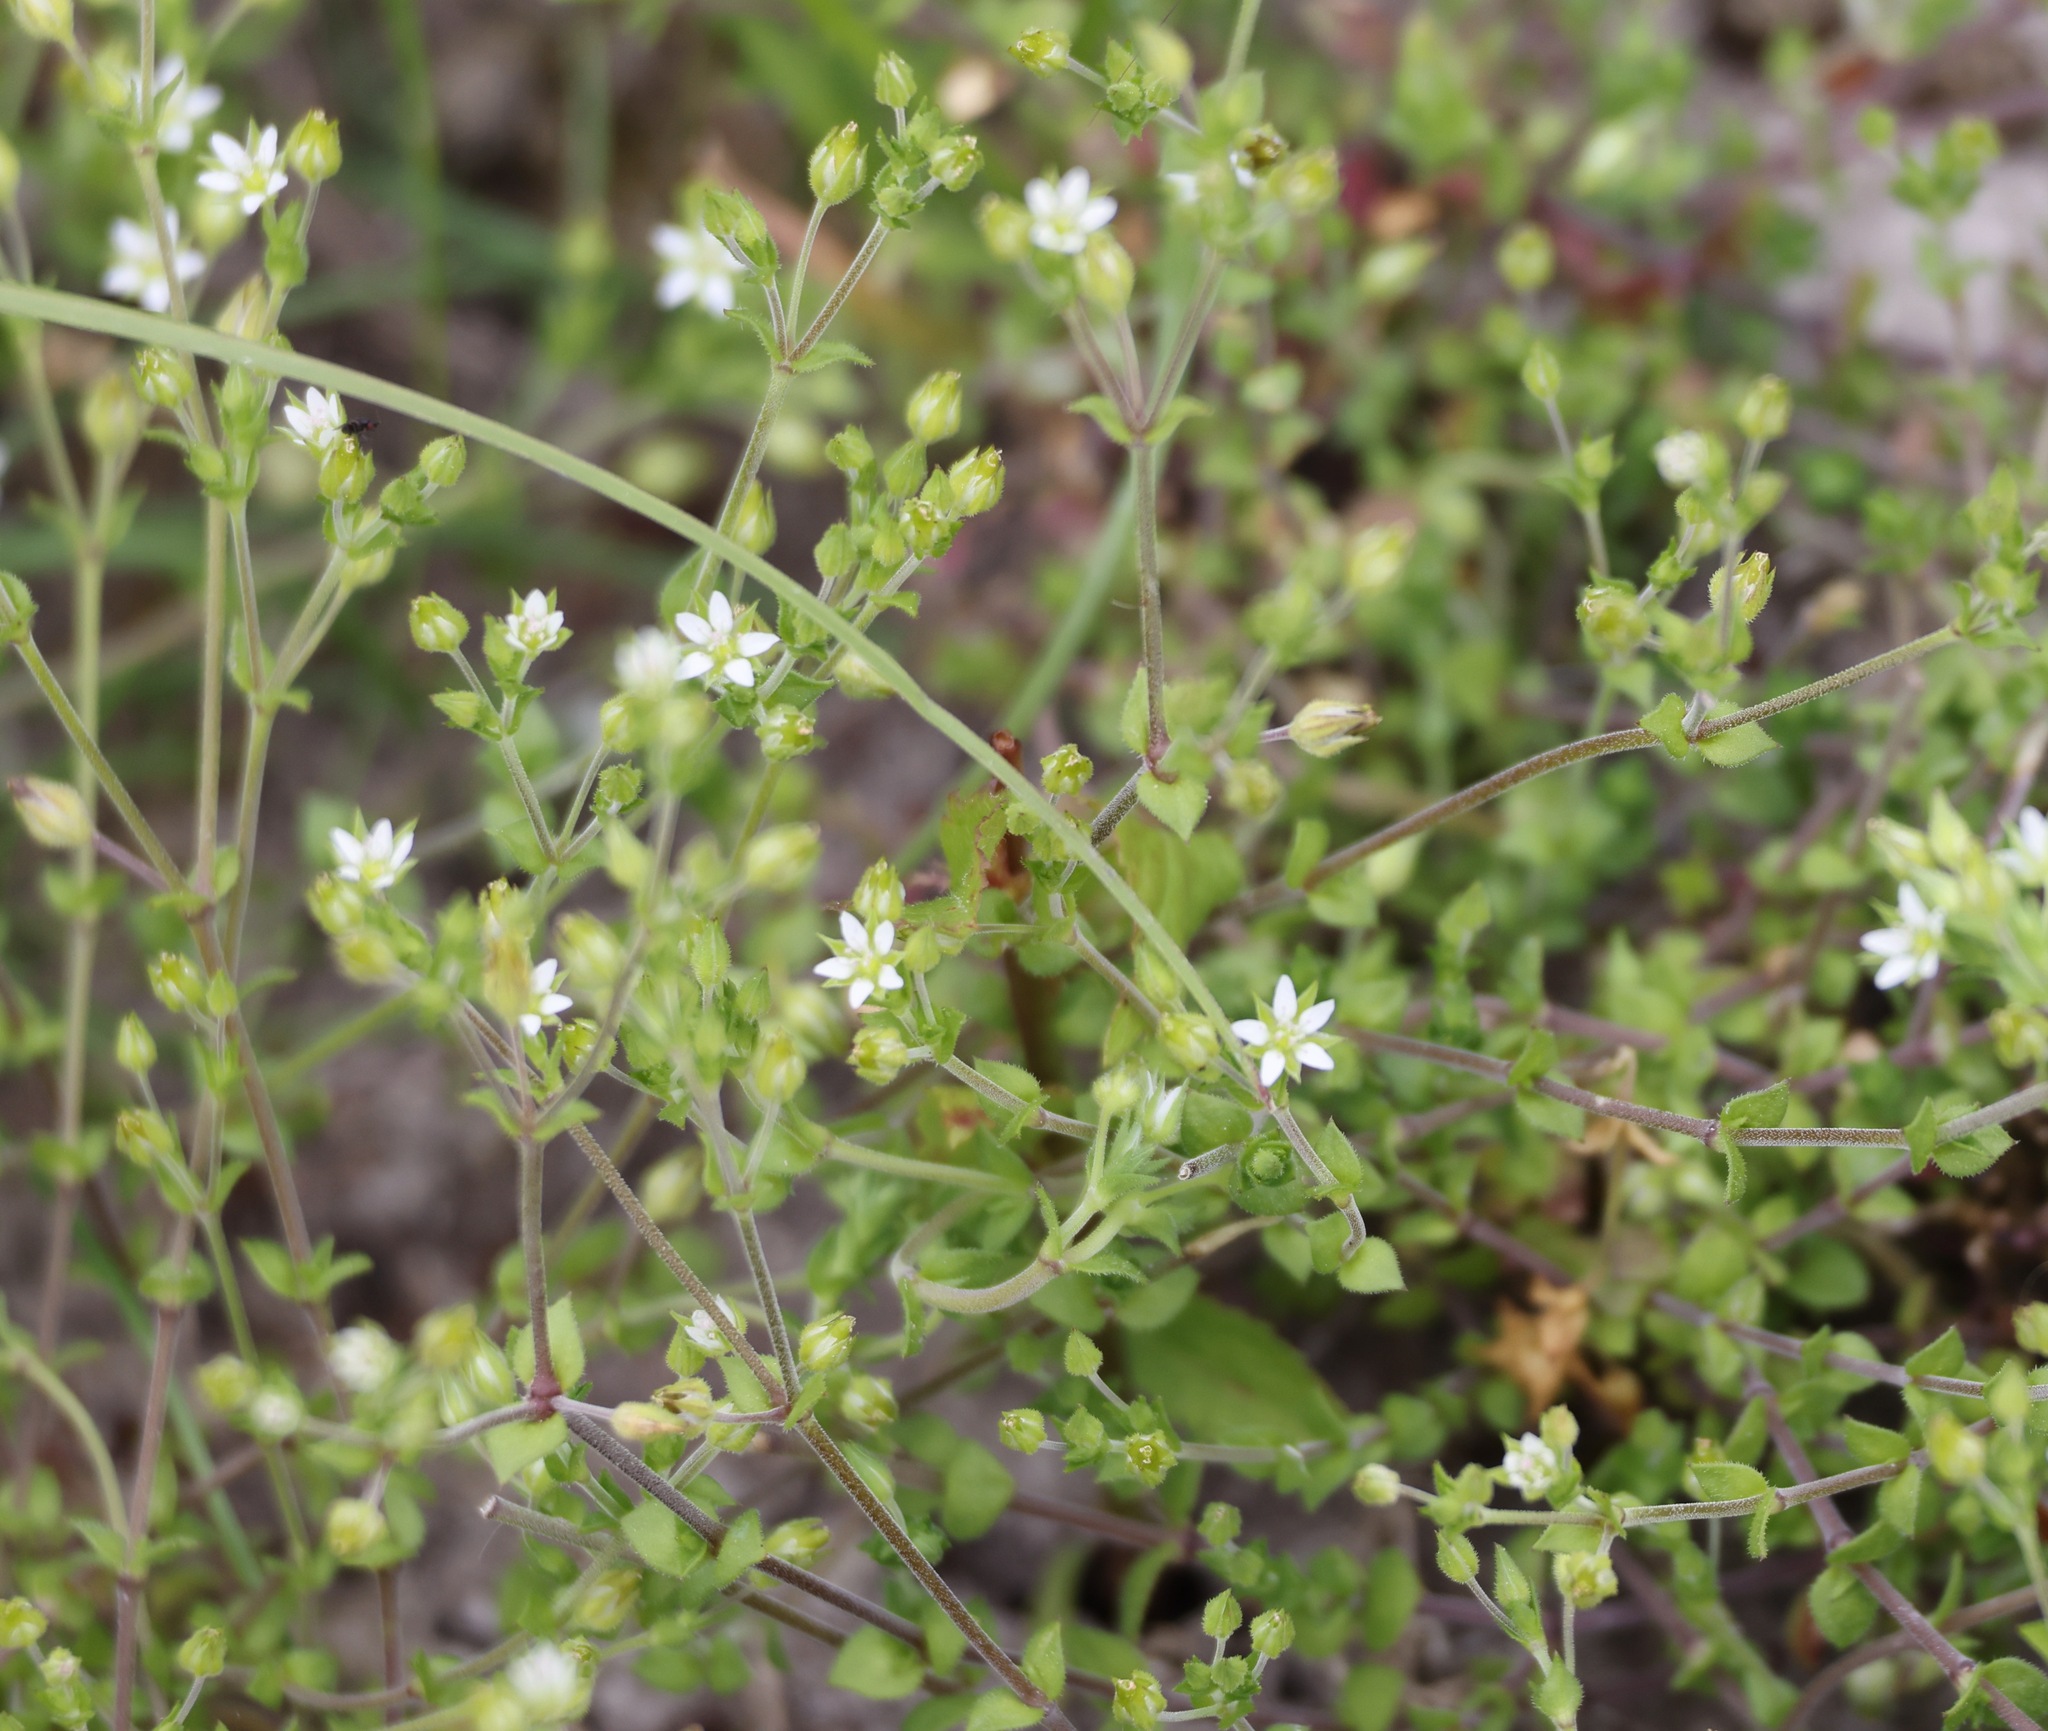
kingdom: Plantae
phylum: Tracheophyta
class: Magnoliopsida
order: Caryophyllales
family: Caryophyllaceae
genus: Arenaria
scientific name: Arenaria serpyllifolia
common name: Thyme-leaved sandwort
